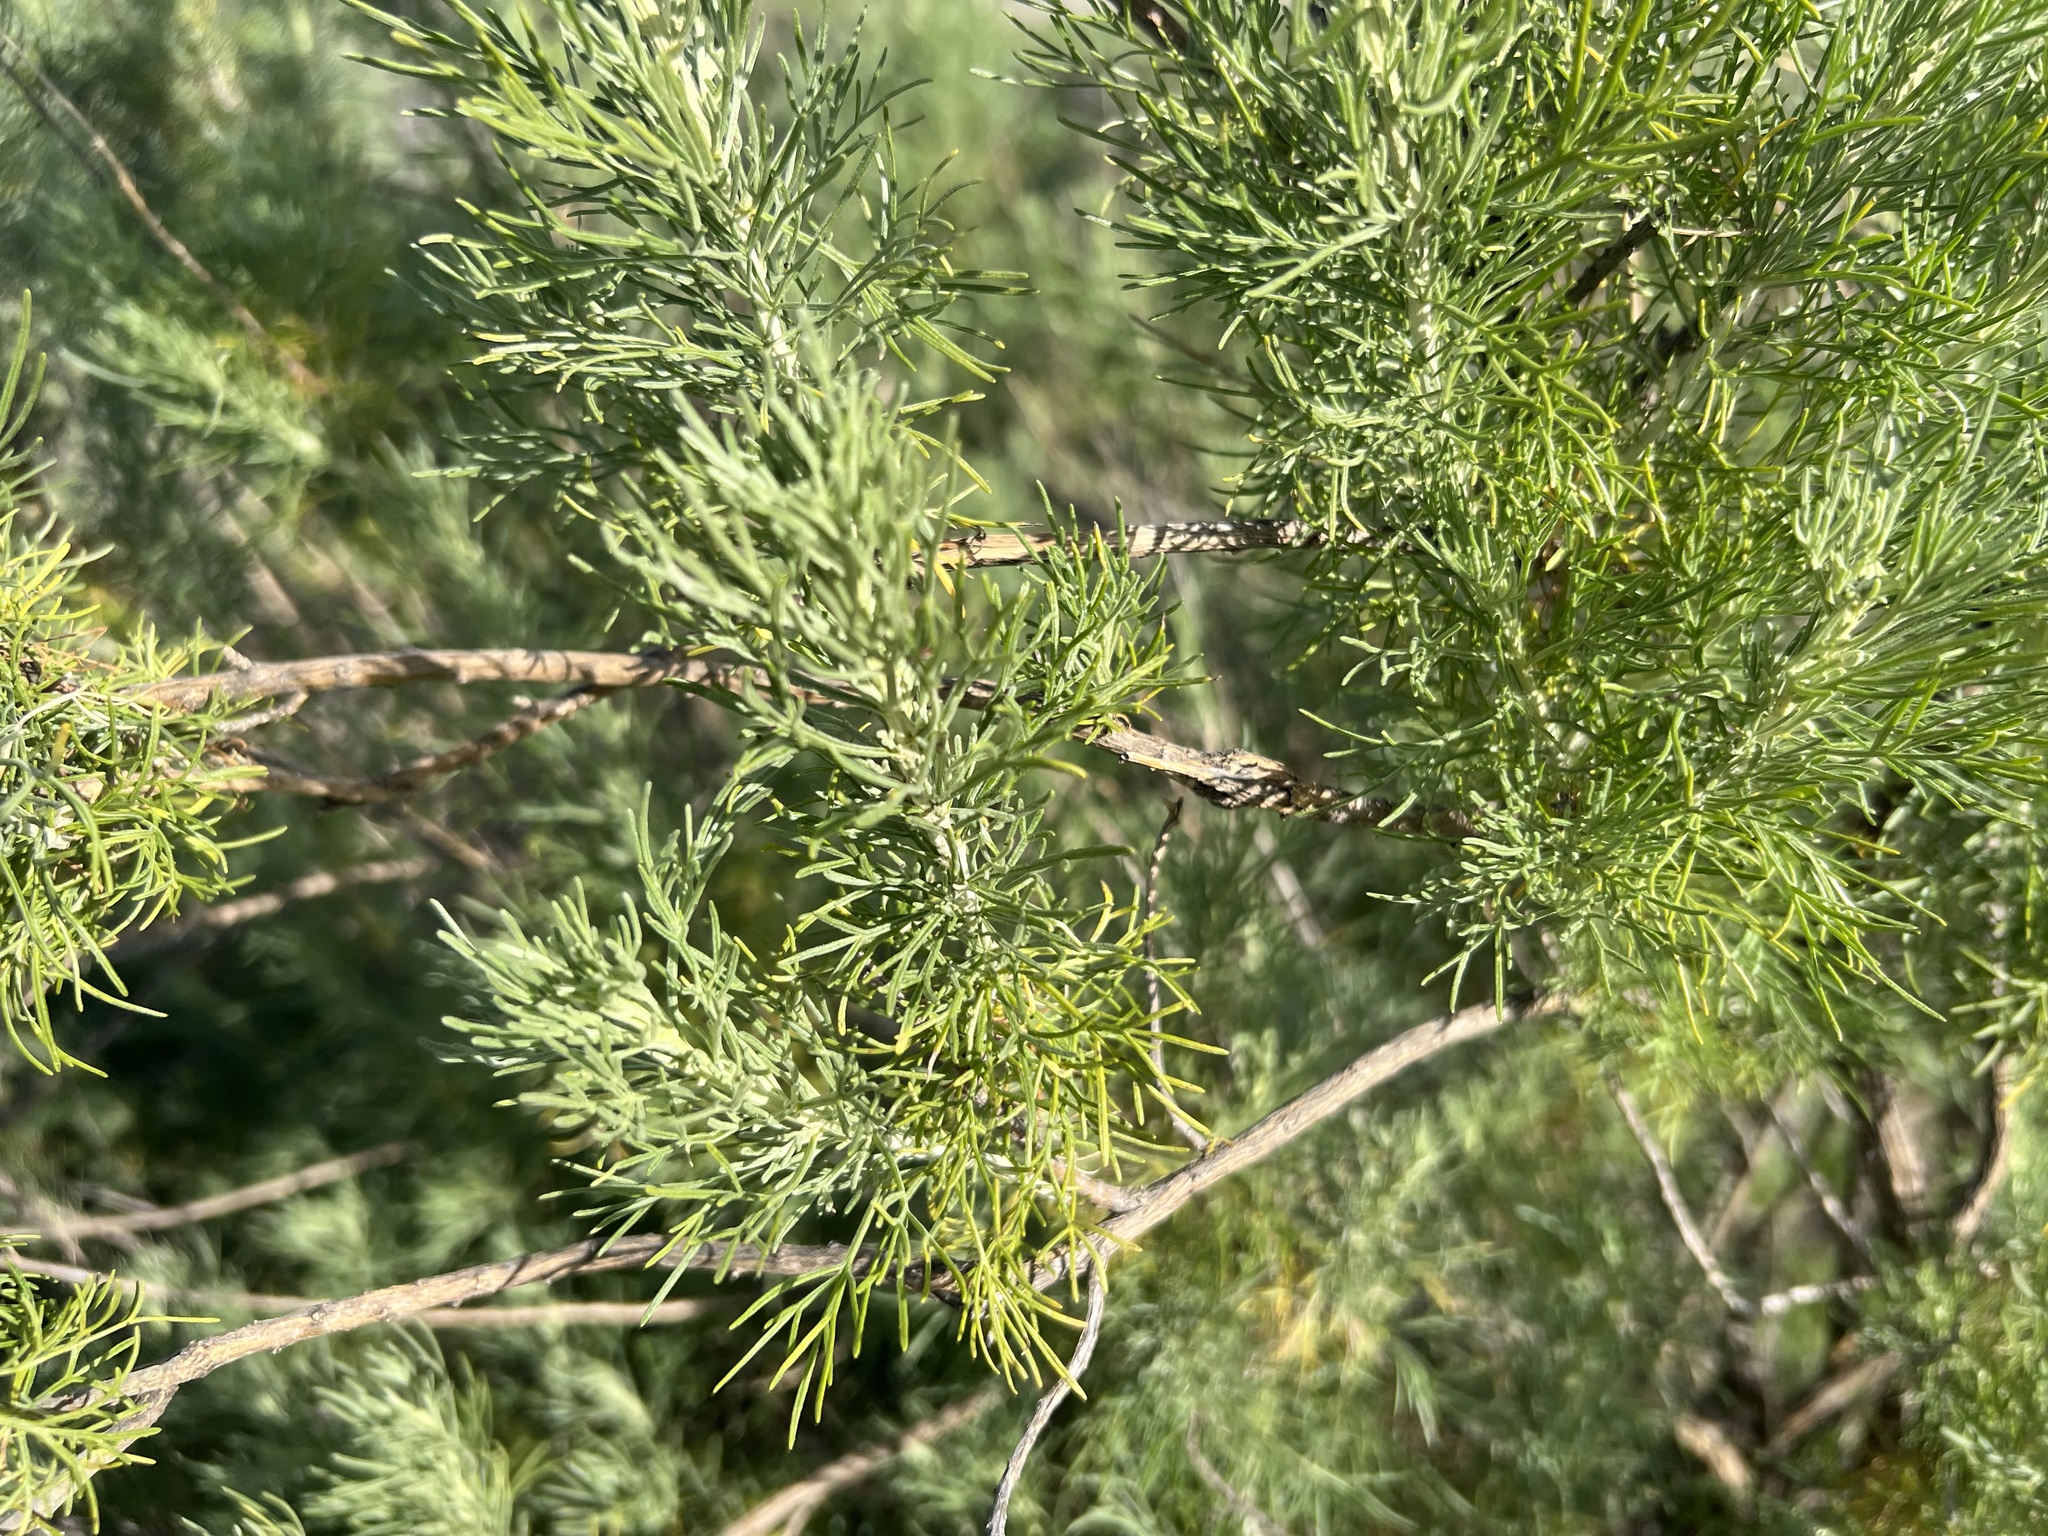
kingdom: Plantae
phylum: Tracheophyta
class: Magnoliopsida
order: Asterales
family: Asteraceae
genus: Artemisia
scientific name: Artemisia californica
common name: California sagebrush
